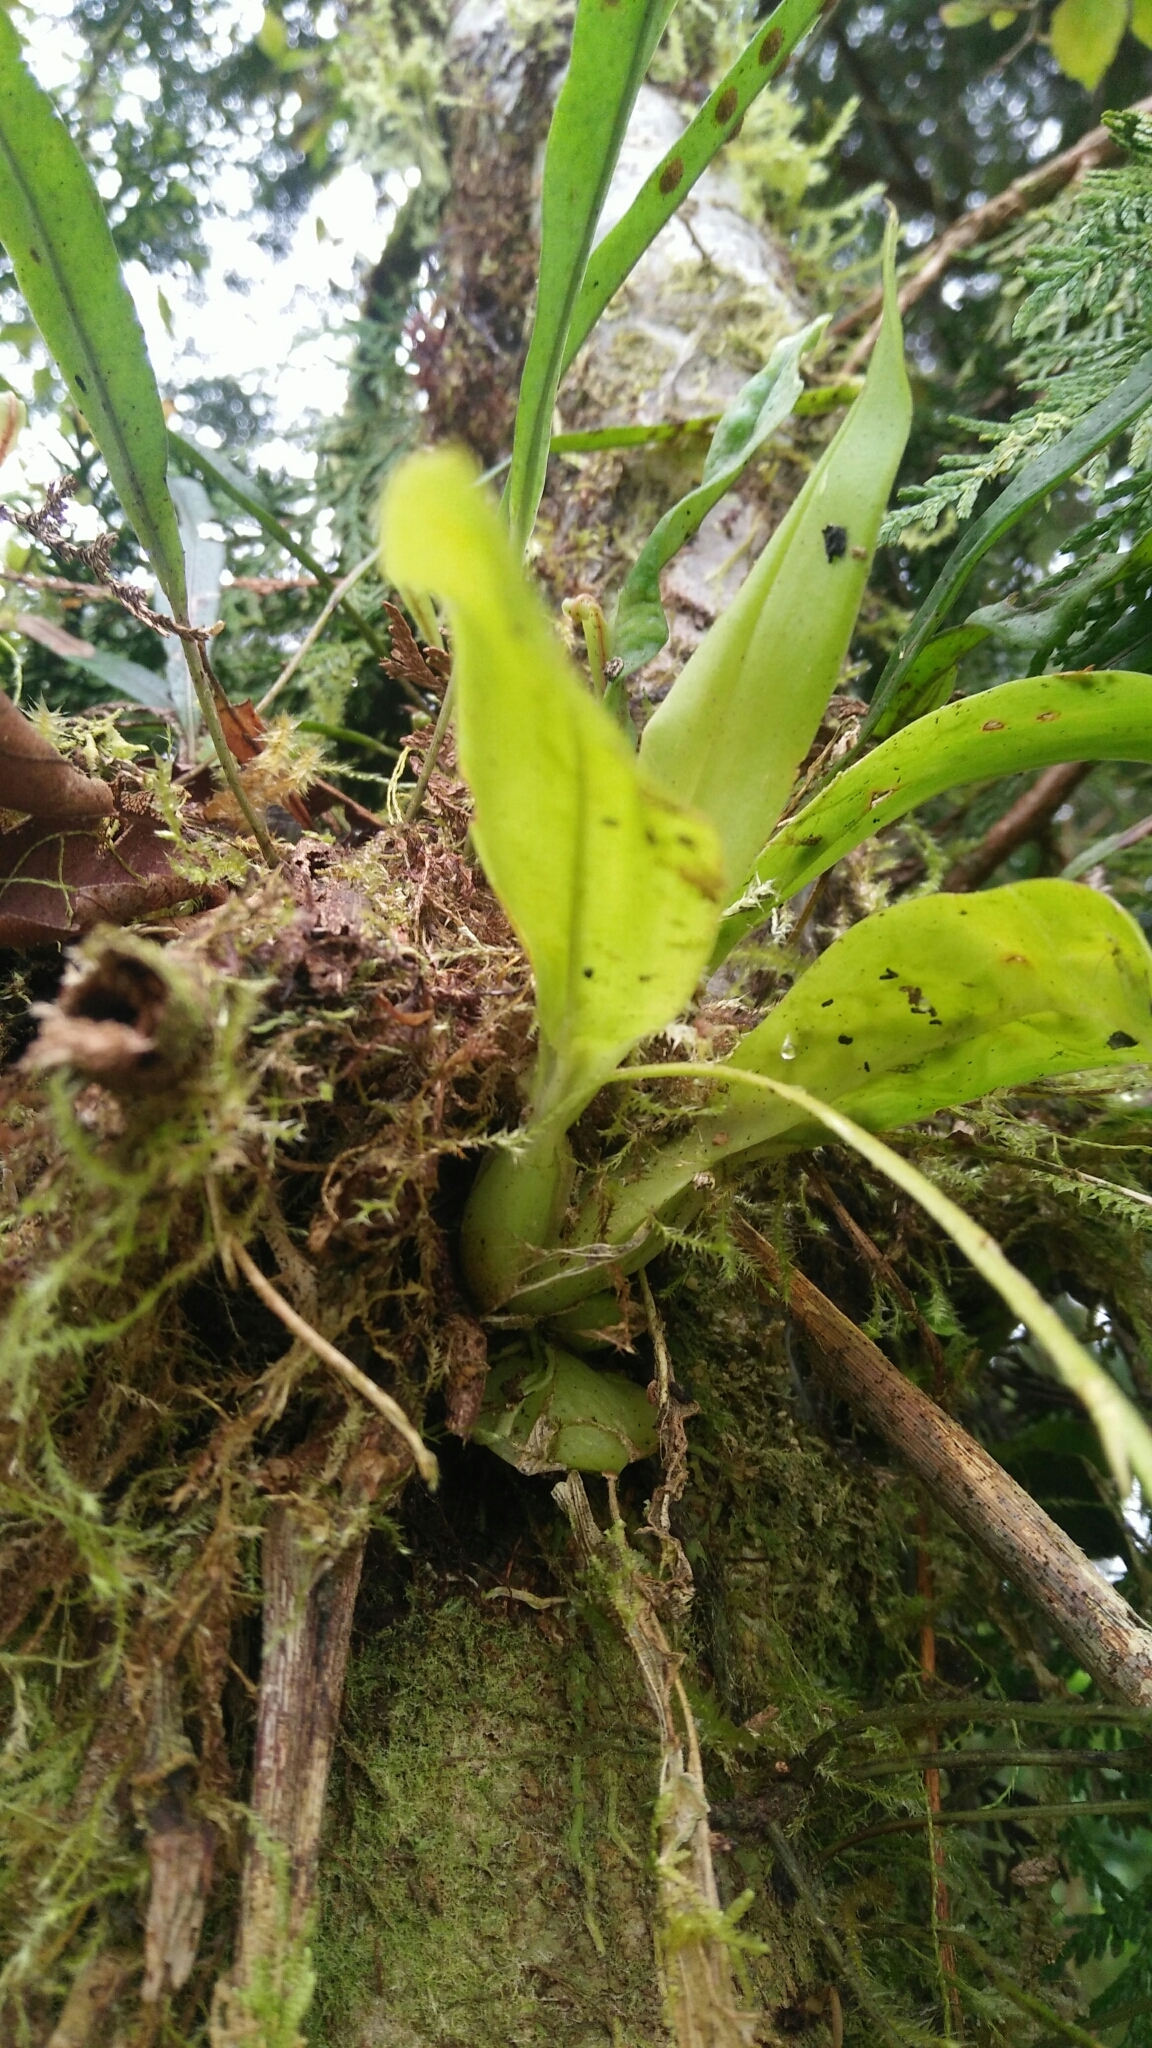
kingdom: Plantae
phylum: Tracheophyta
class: Liliopsida
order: Asparagales
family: Orchidaceae
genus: Liparis
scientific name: Liparis elliptica
